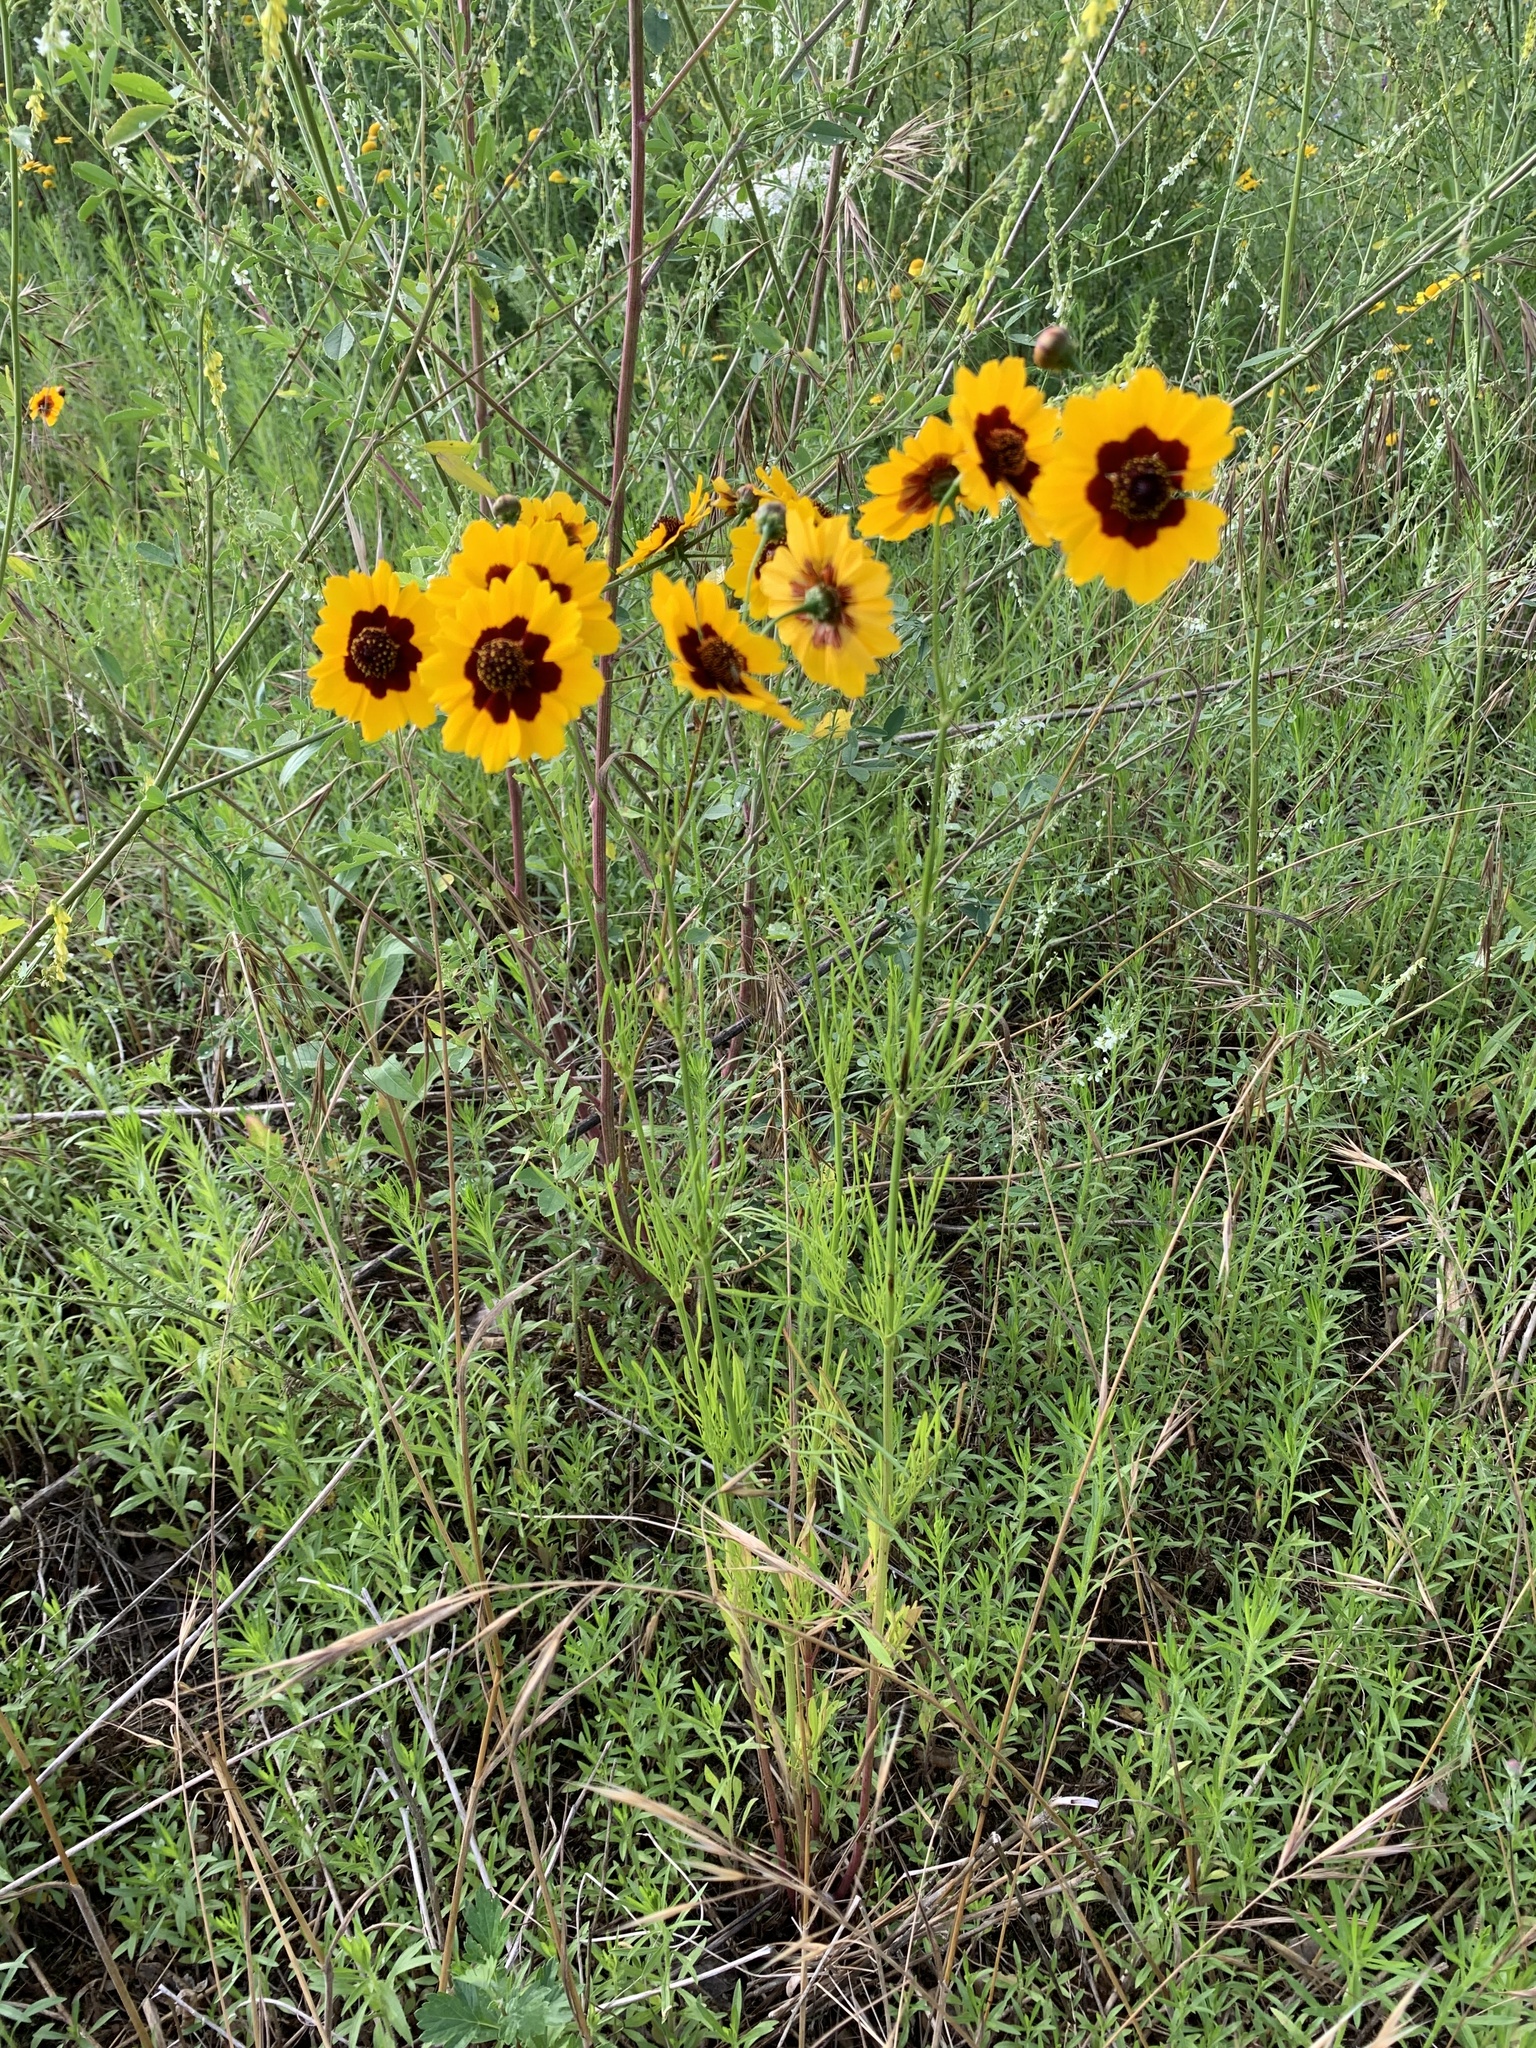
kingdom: Plantae
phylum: Tracheophyta
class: Magnoliopsida
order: Asterales
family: Asteraceae
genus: Coreopsis
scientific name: Coreopsis tinctoria
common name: Garden tickseed
